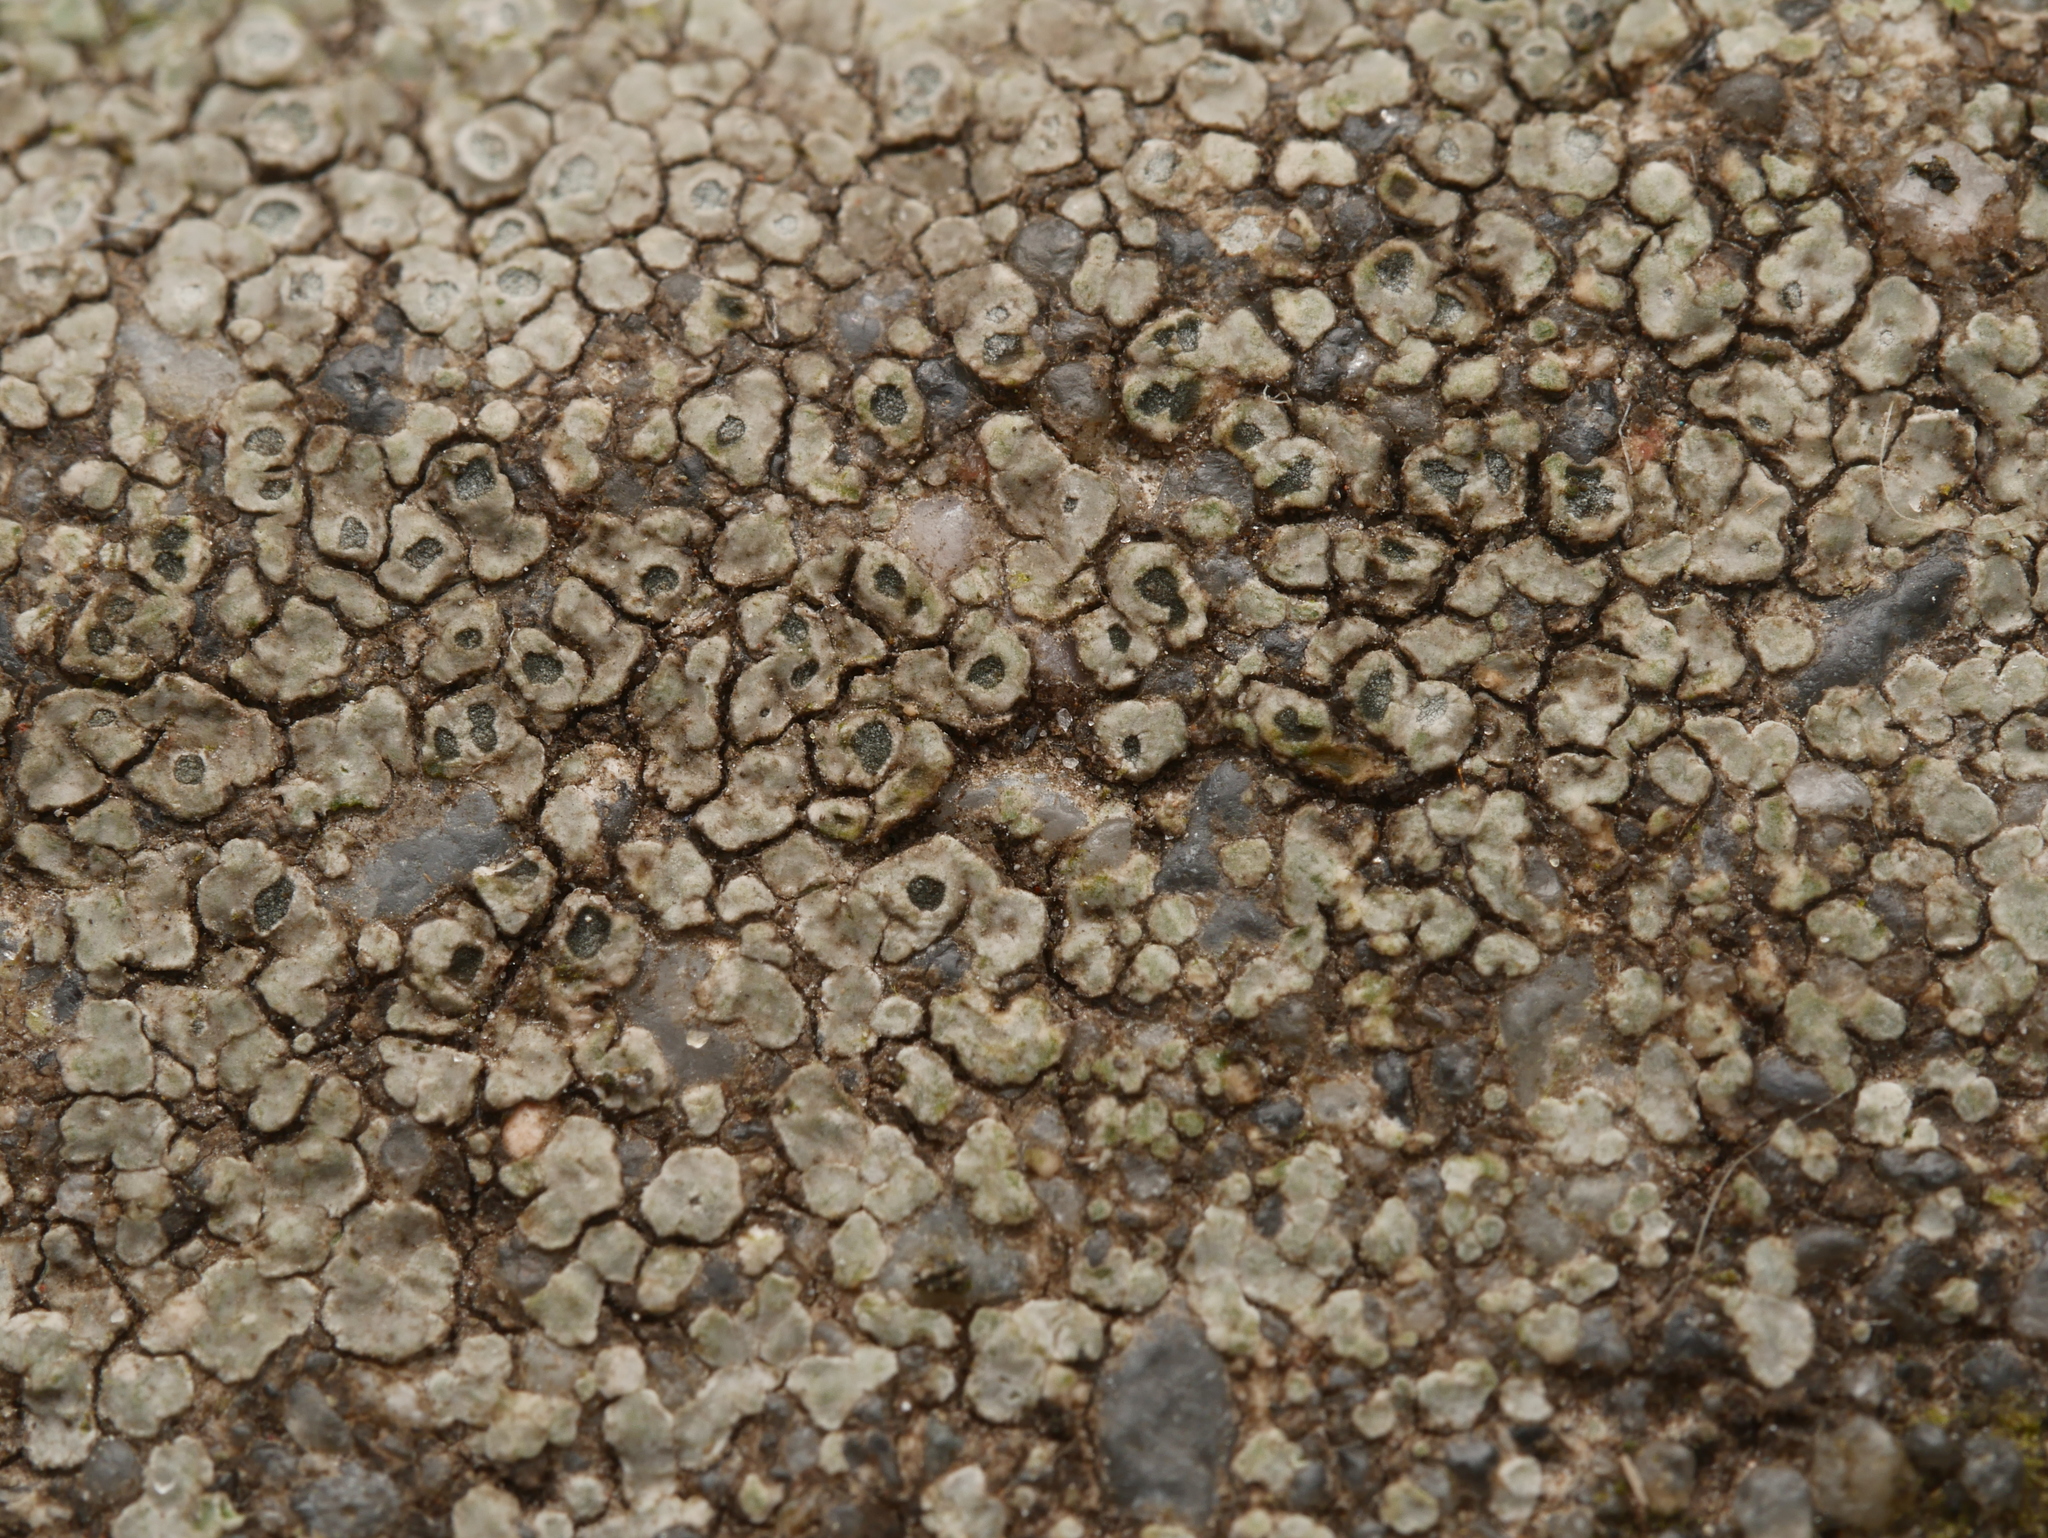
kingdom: Fungi
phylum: Ascomycota
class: Lecanoromycetes
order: Pertusariales
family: Megasporaceae
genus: Circinaria
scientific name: Circinaria contorta
